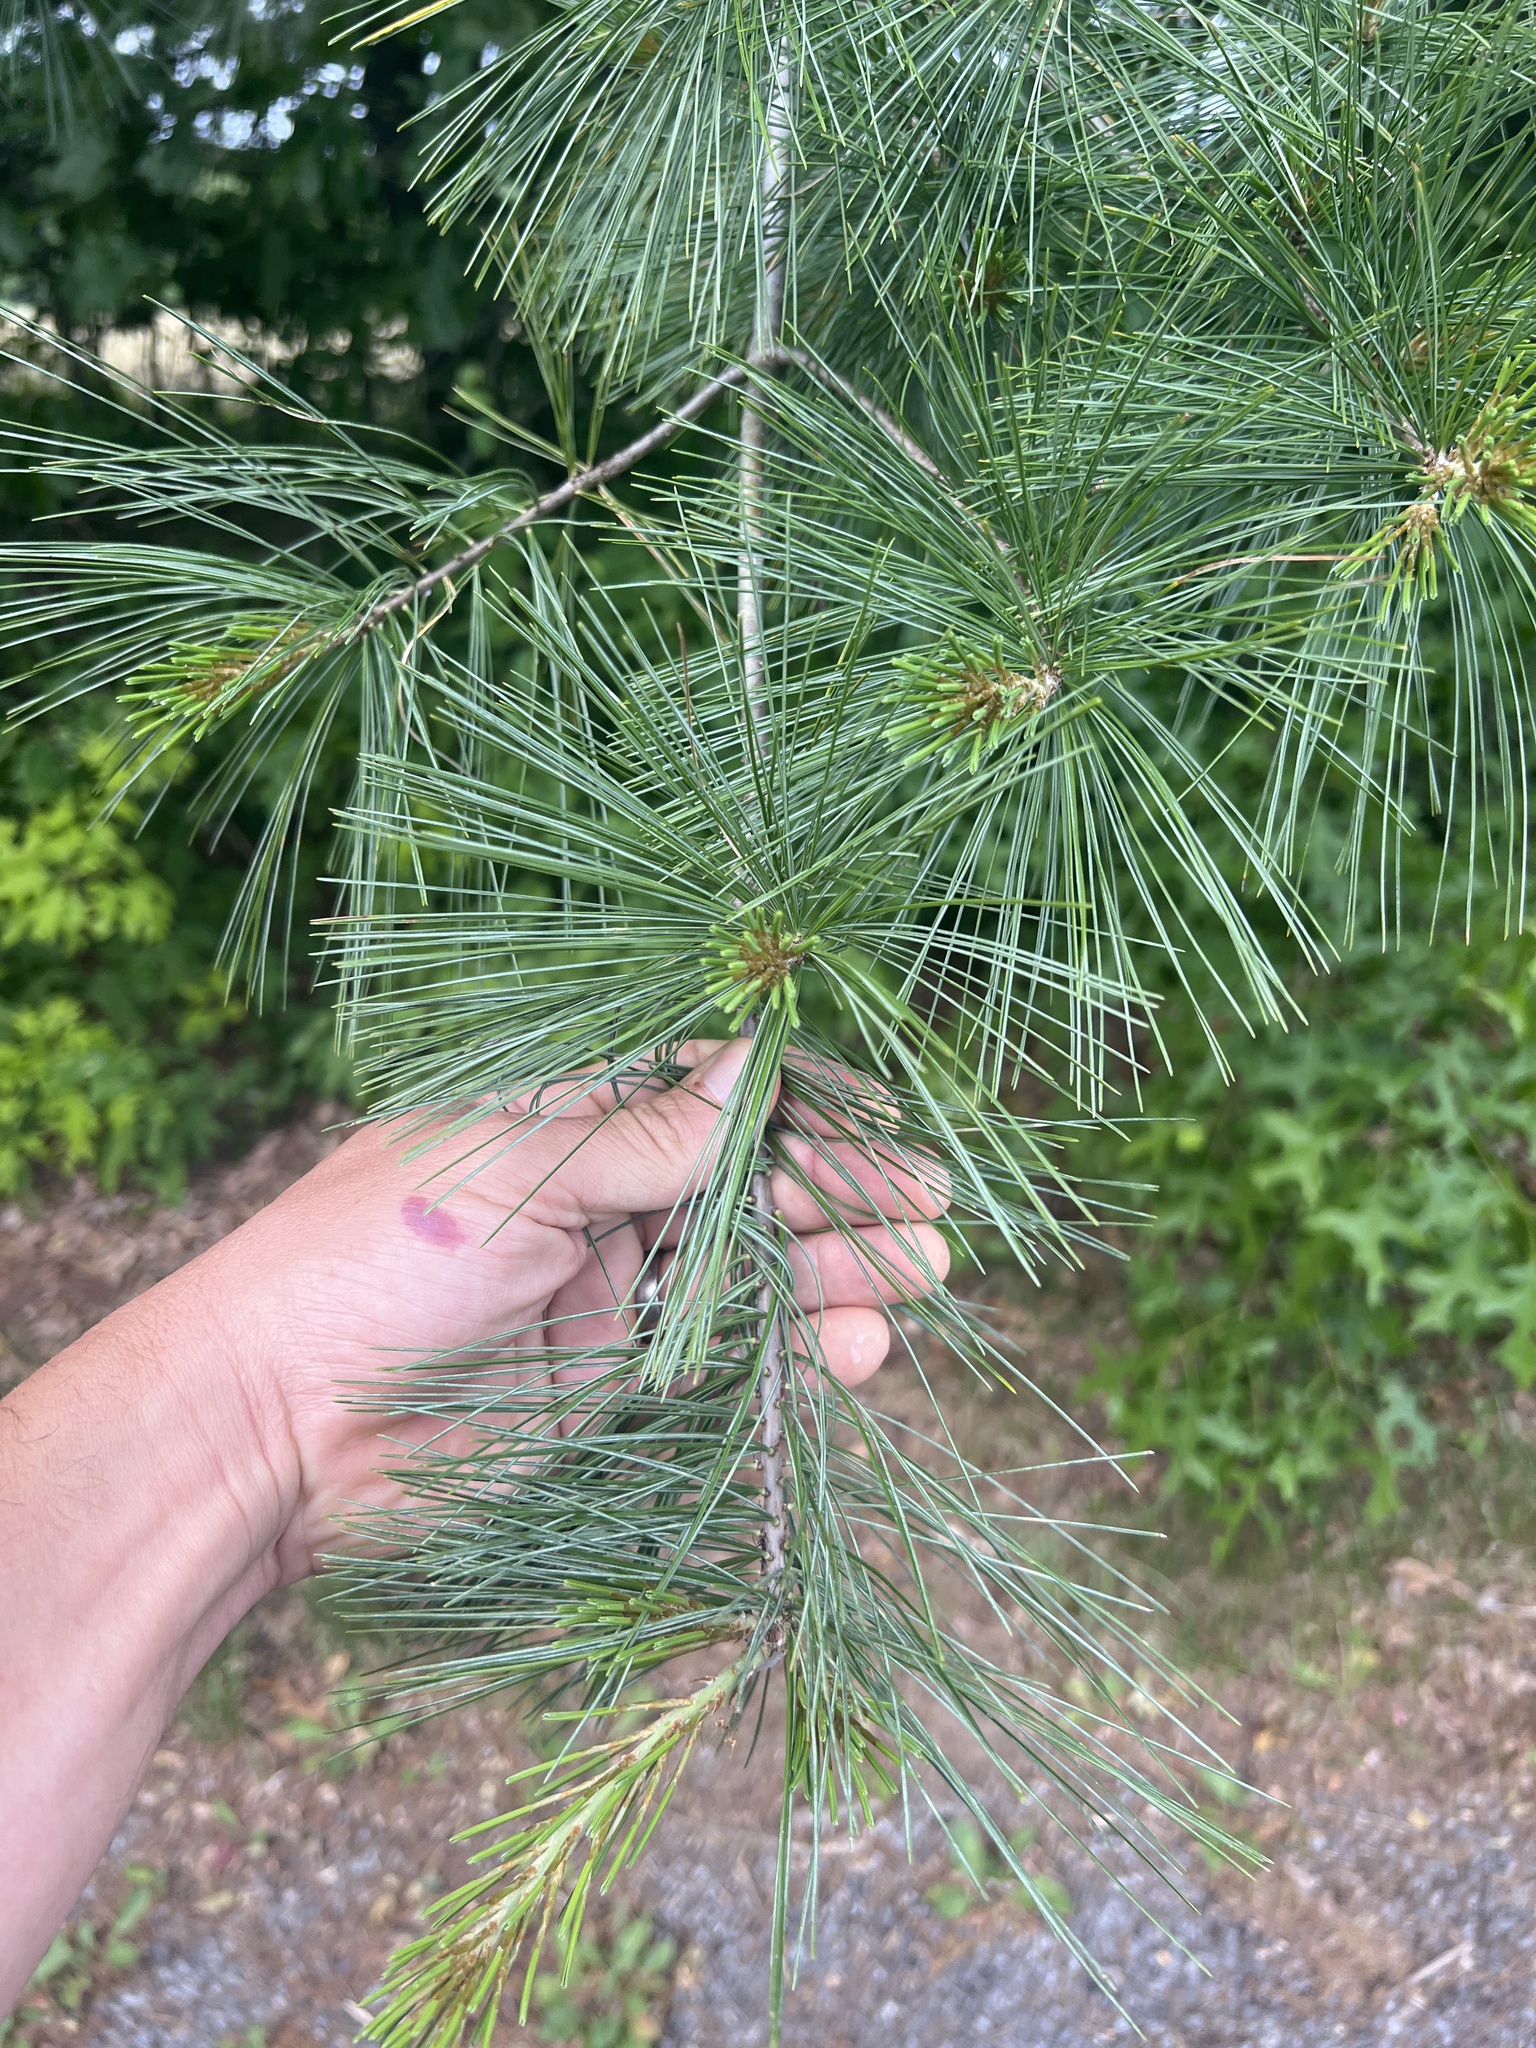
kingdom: Plantae
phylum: Tracheophyta
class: Pinopsida
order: Pinales
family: Pinaceae
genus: Pinus
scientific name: Pinus strobus
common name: Weymouth pine
